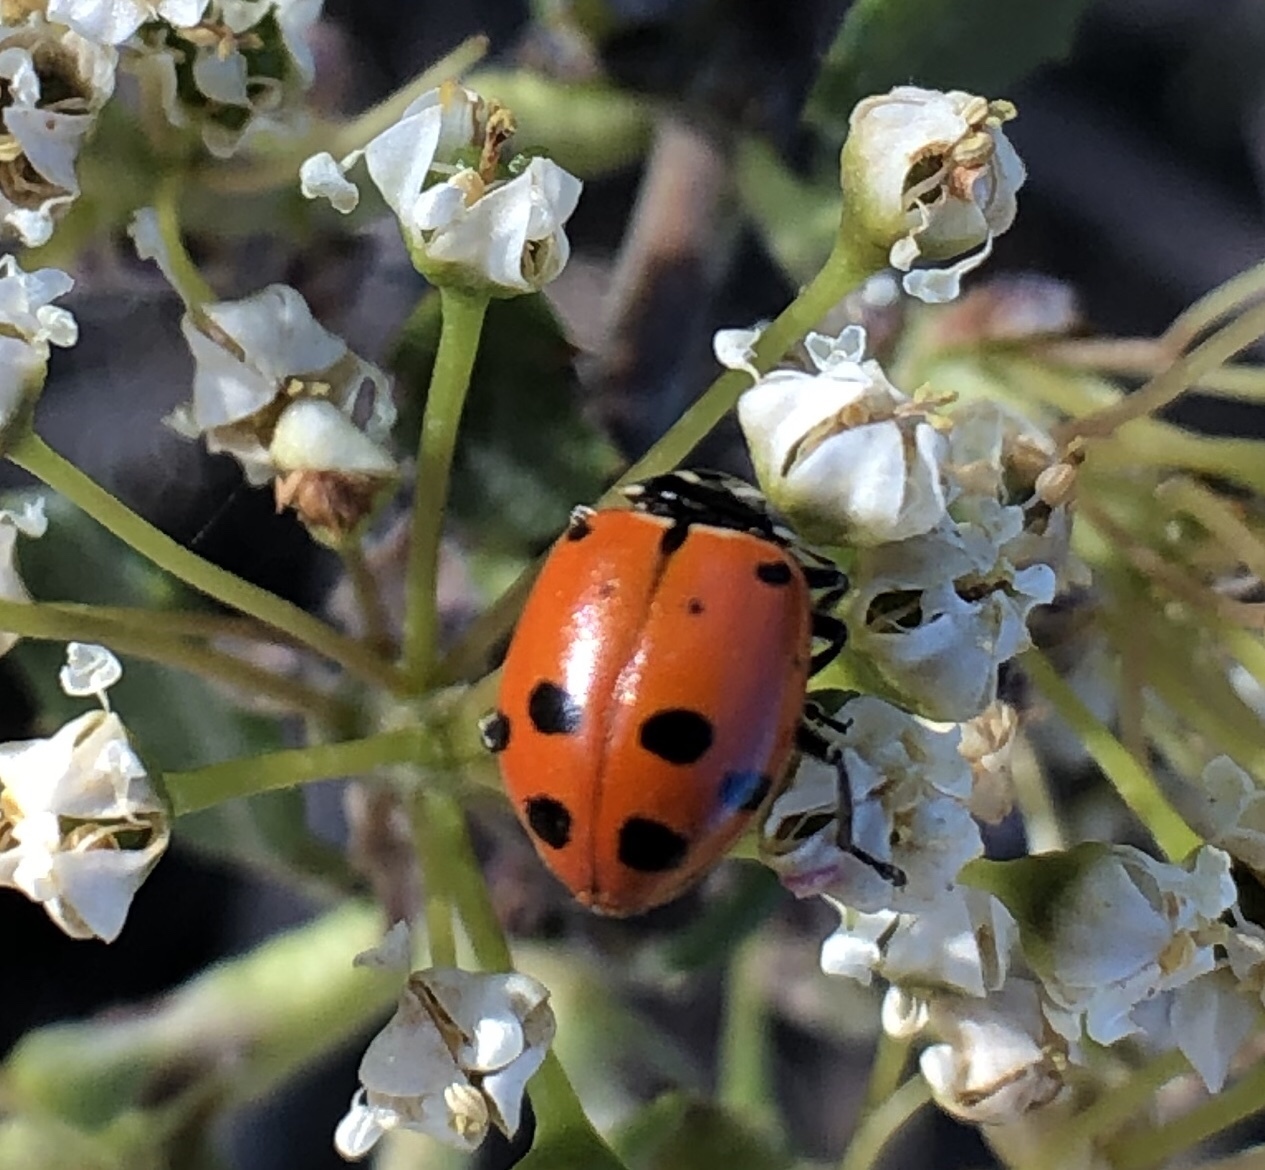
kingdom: Animalia
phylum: Arthropoda
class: Insecta
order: Coleoptera
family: Coccinellidae
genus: Hippodamia
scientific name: Hippodamia convergens
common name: Convergent lady beetle
